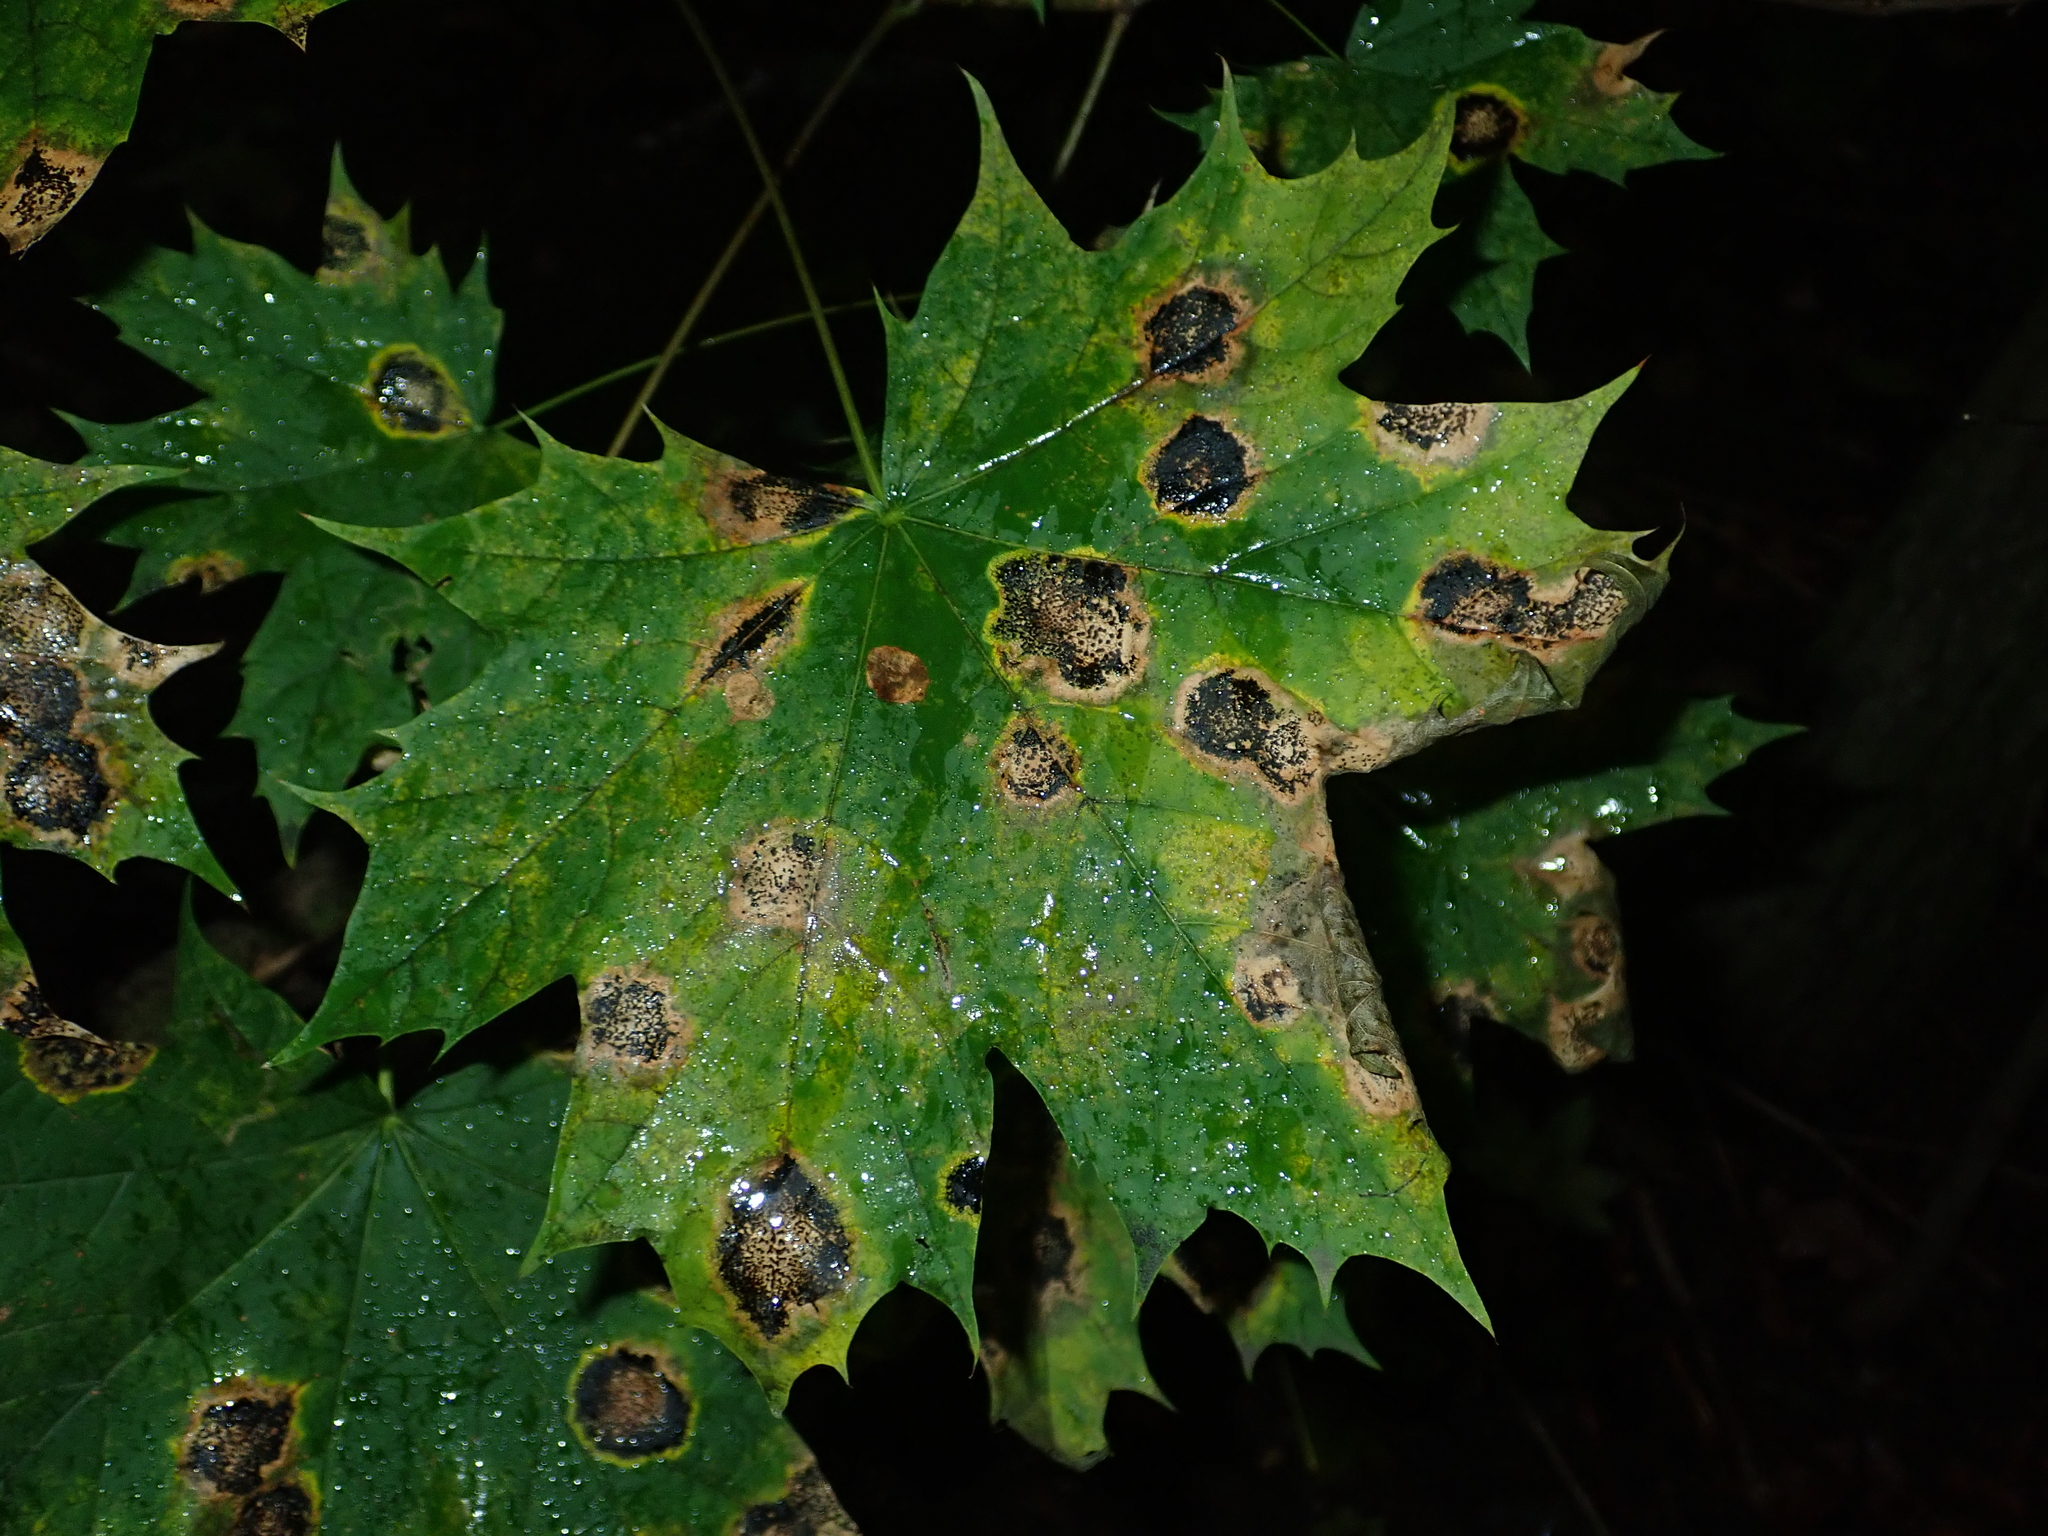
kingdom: Plantae
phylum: Tracheophyta
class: Magnoliopsida
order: Sapindales
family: Sapindaceae
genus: Acer
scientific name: Acer platanoides
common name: Norway maple
